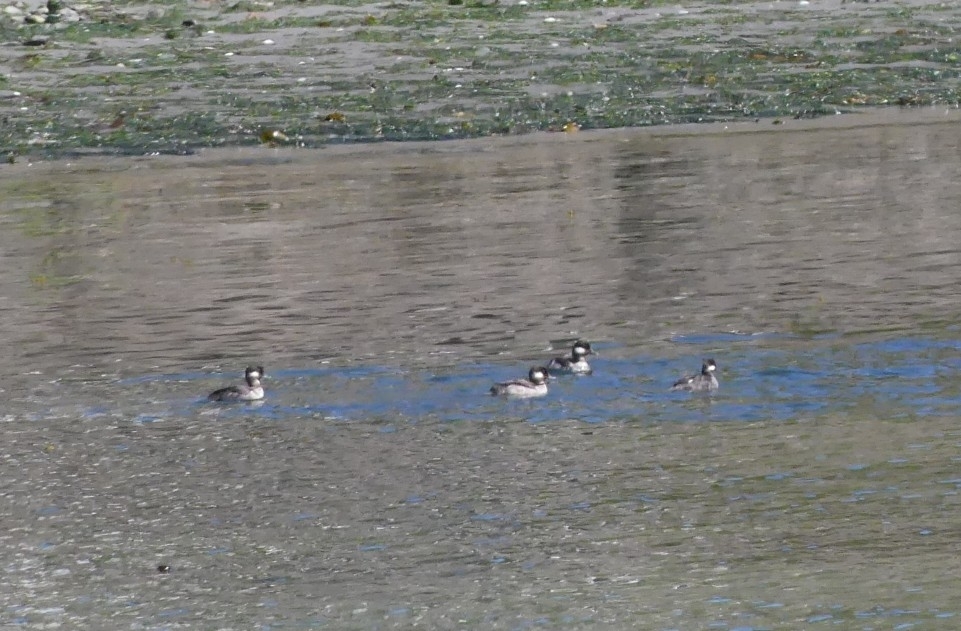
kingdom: Animalia
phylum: Chordata
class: Aves
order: Anseriformes
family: Anatidae
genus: Bucephala
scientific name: Bucephala albeola
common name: Bufflehead
